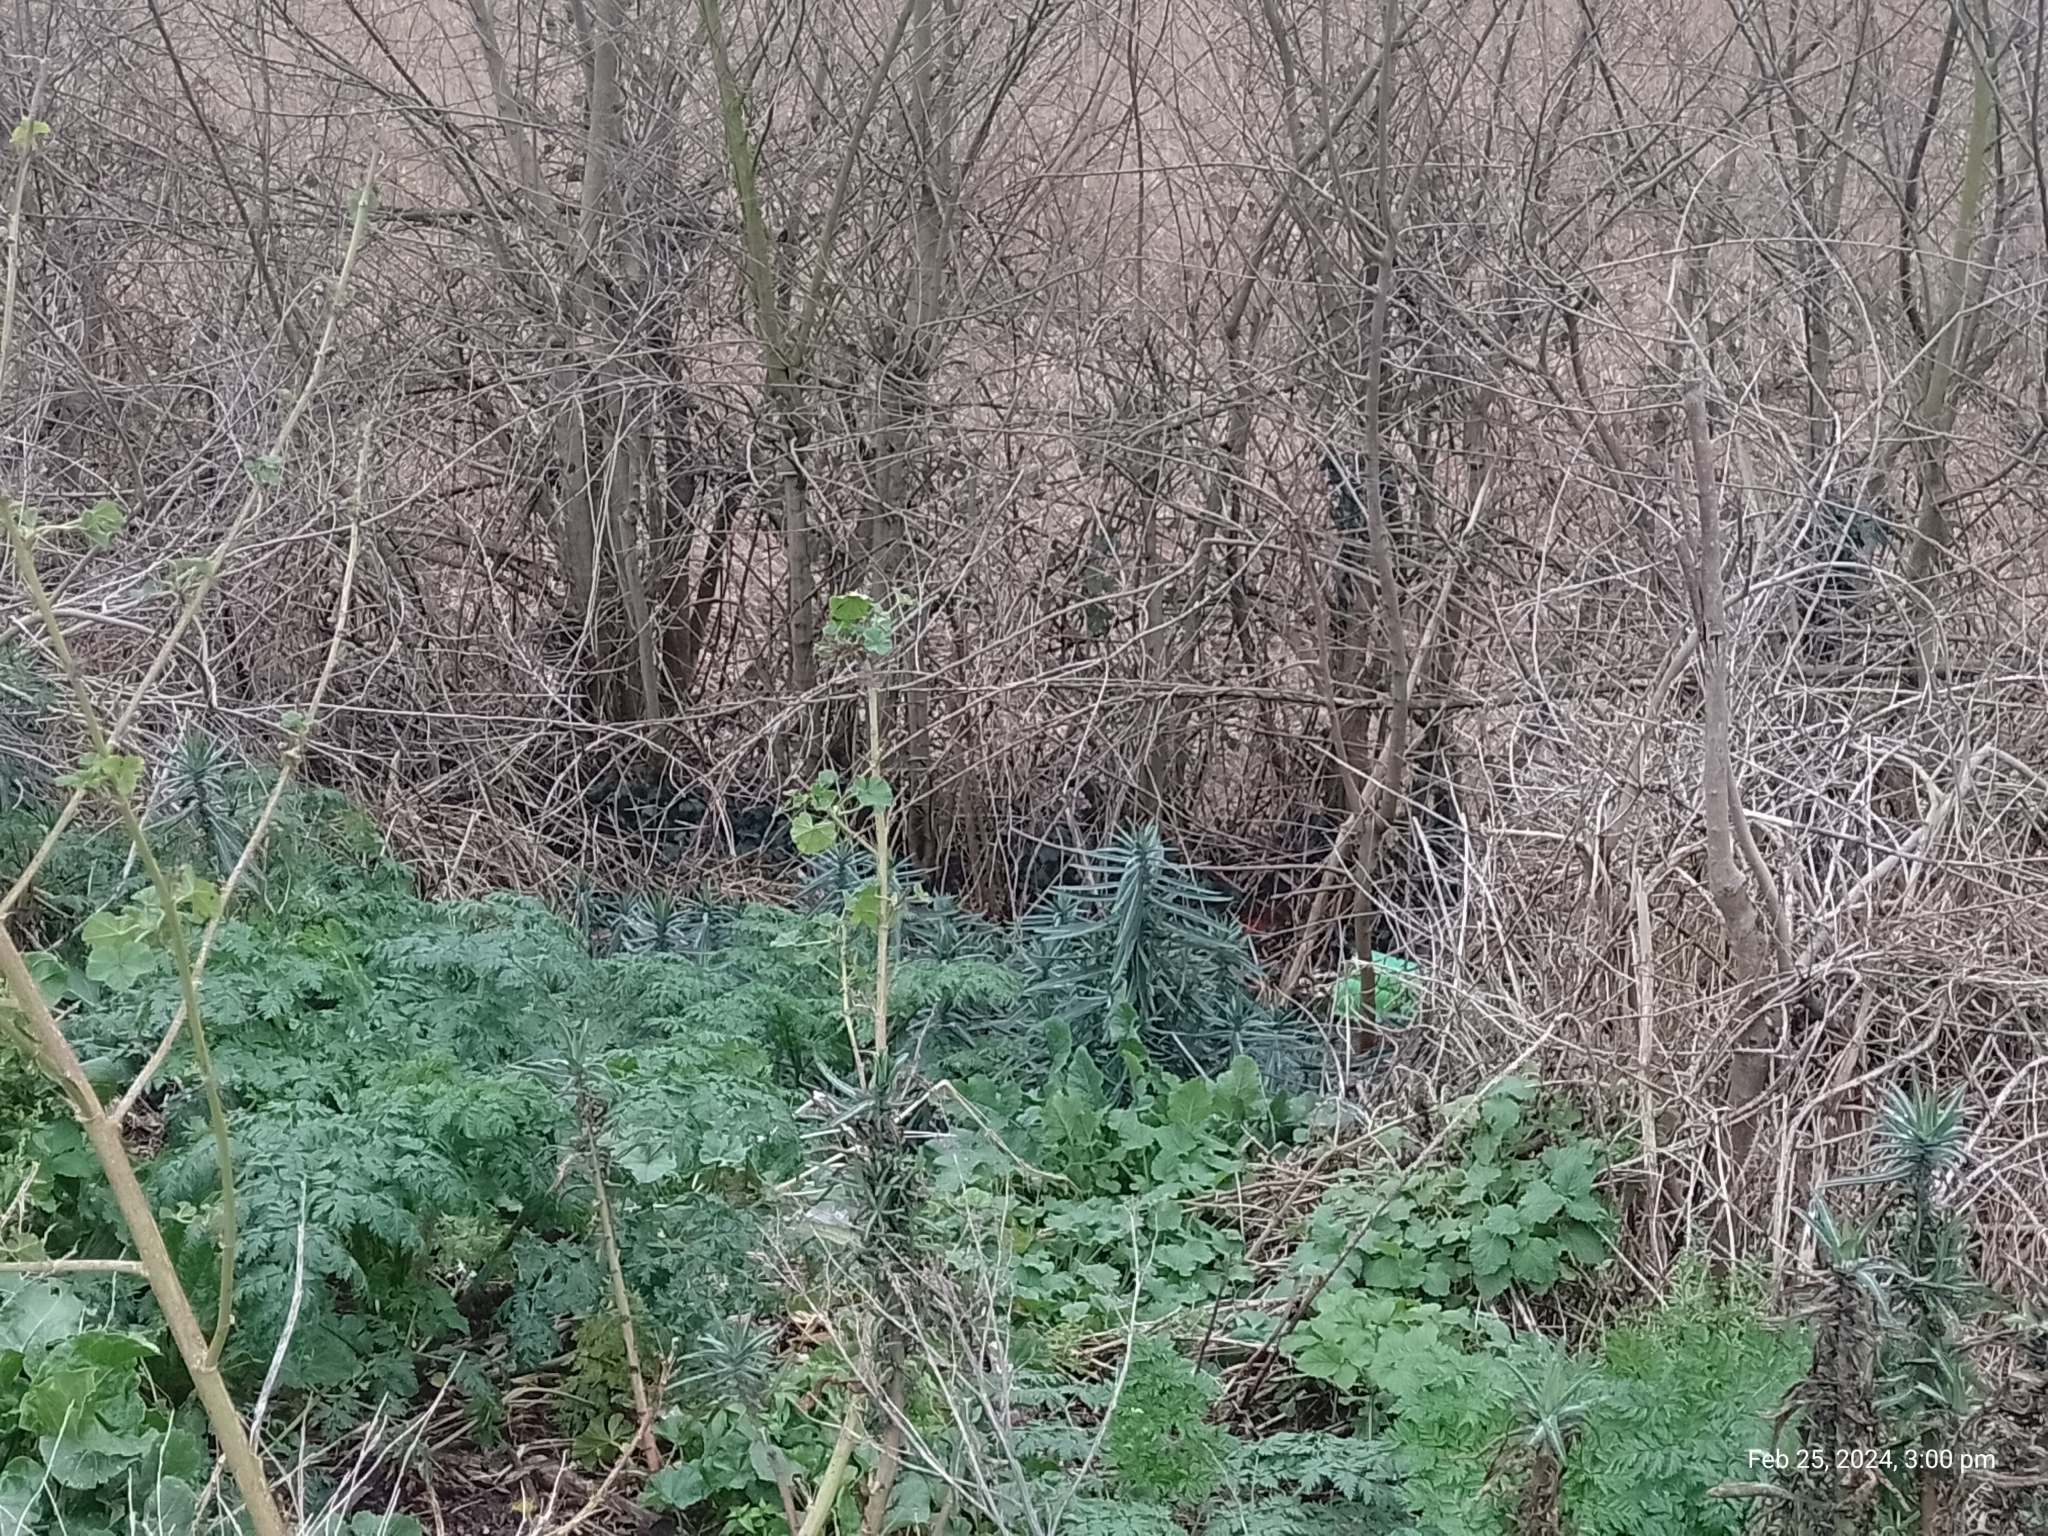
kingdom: Plantae
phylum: Tracheophyta
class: Magnoliopsida
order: Malpighiales
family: Euphorbiaceae
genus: Euphorbia
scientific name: Euphorbia lathyris
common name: Caper spurge
